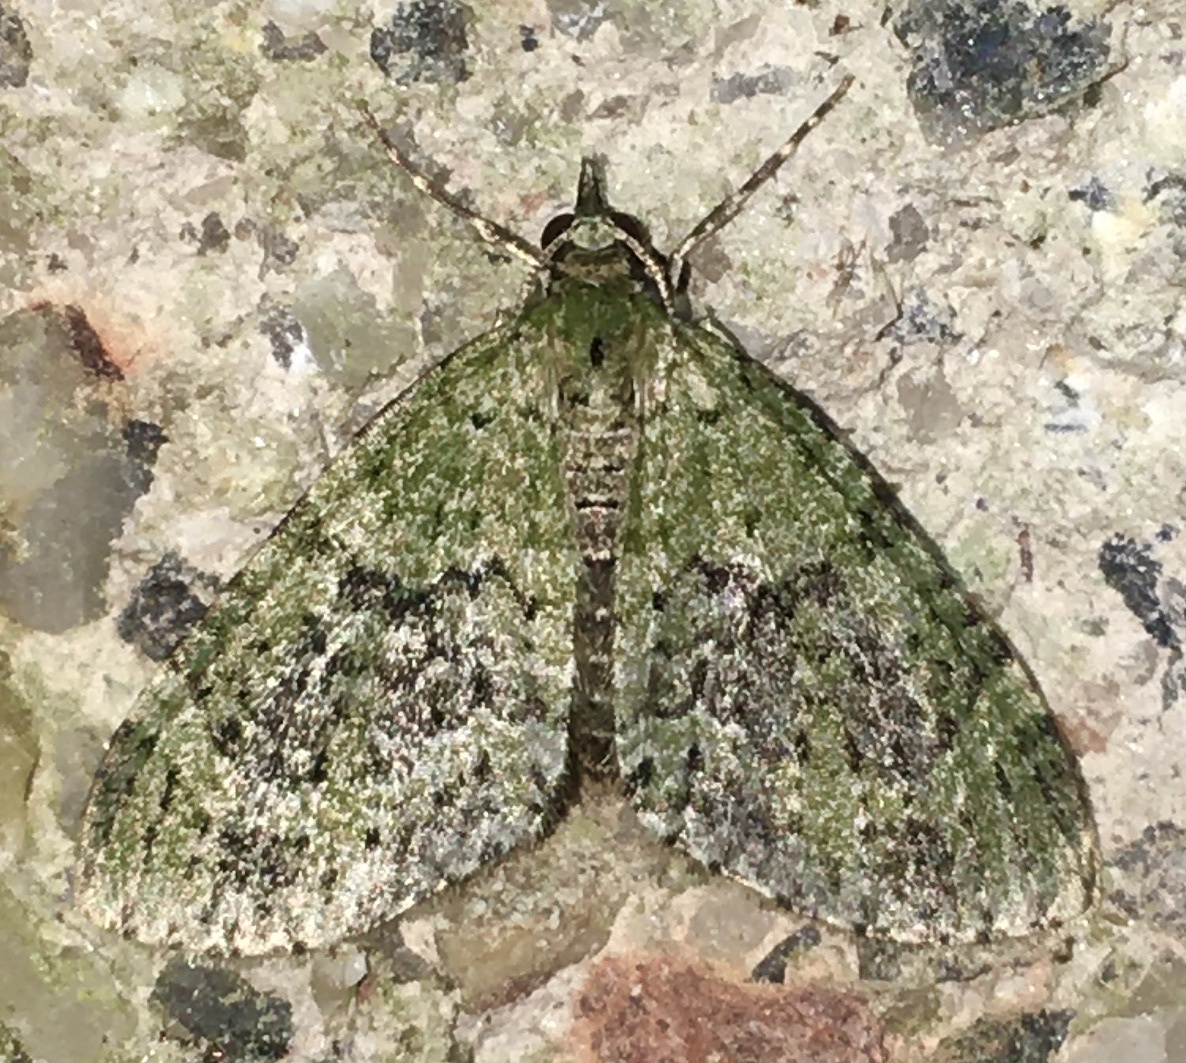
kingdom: Animalia
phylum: Arthropoda
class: Insecta
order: Lepidoptera
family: Geometridae
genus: Acasis
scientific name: Acasis viretata
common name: Yellow-barred brindle
